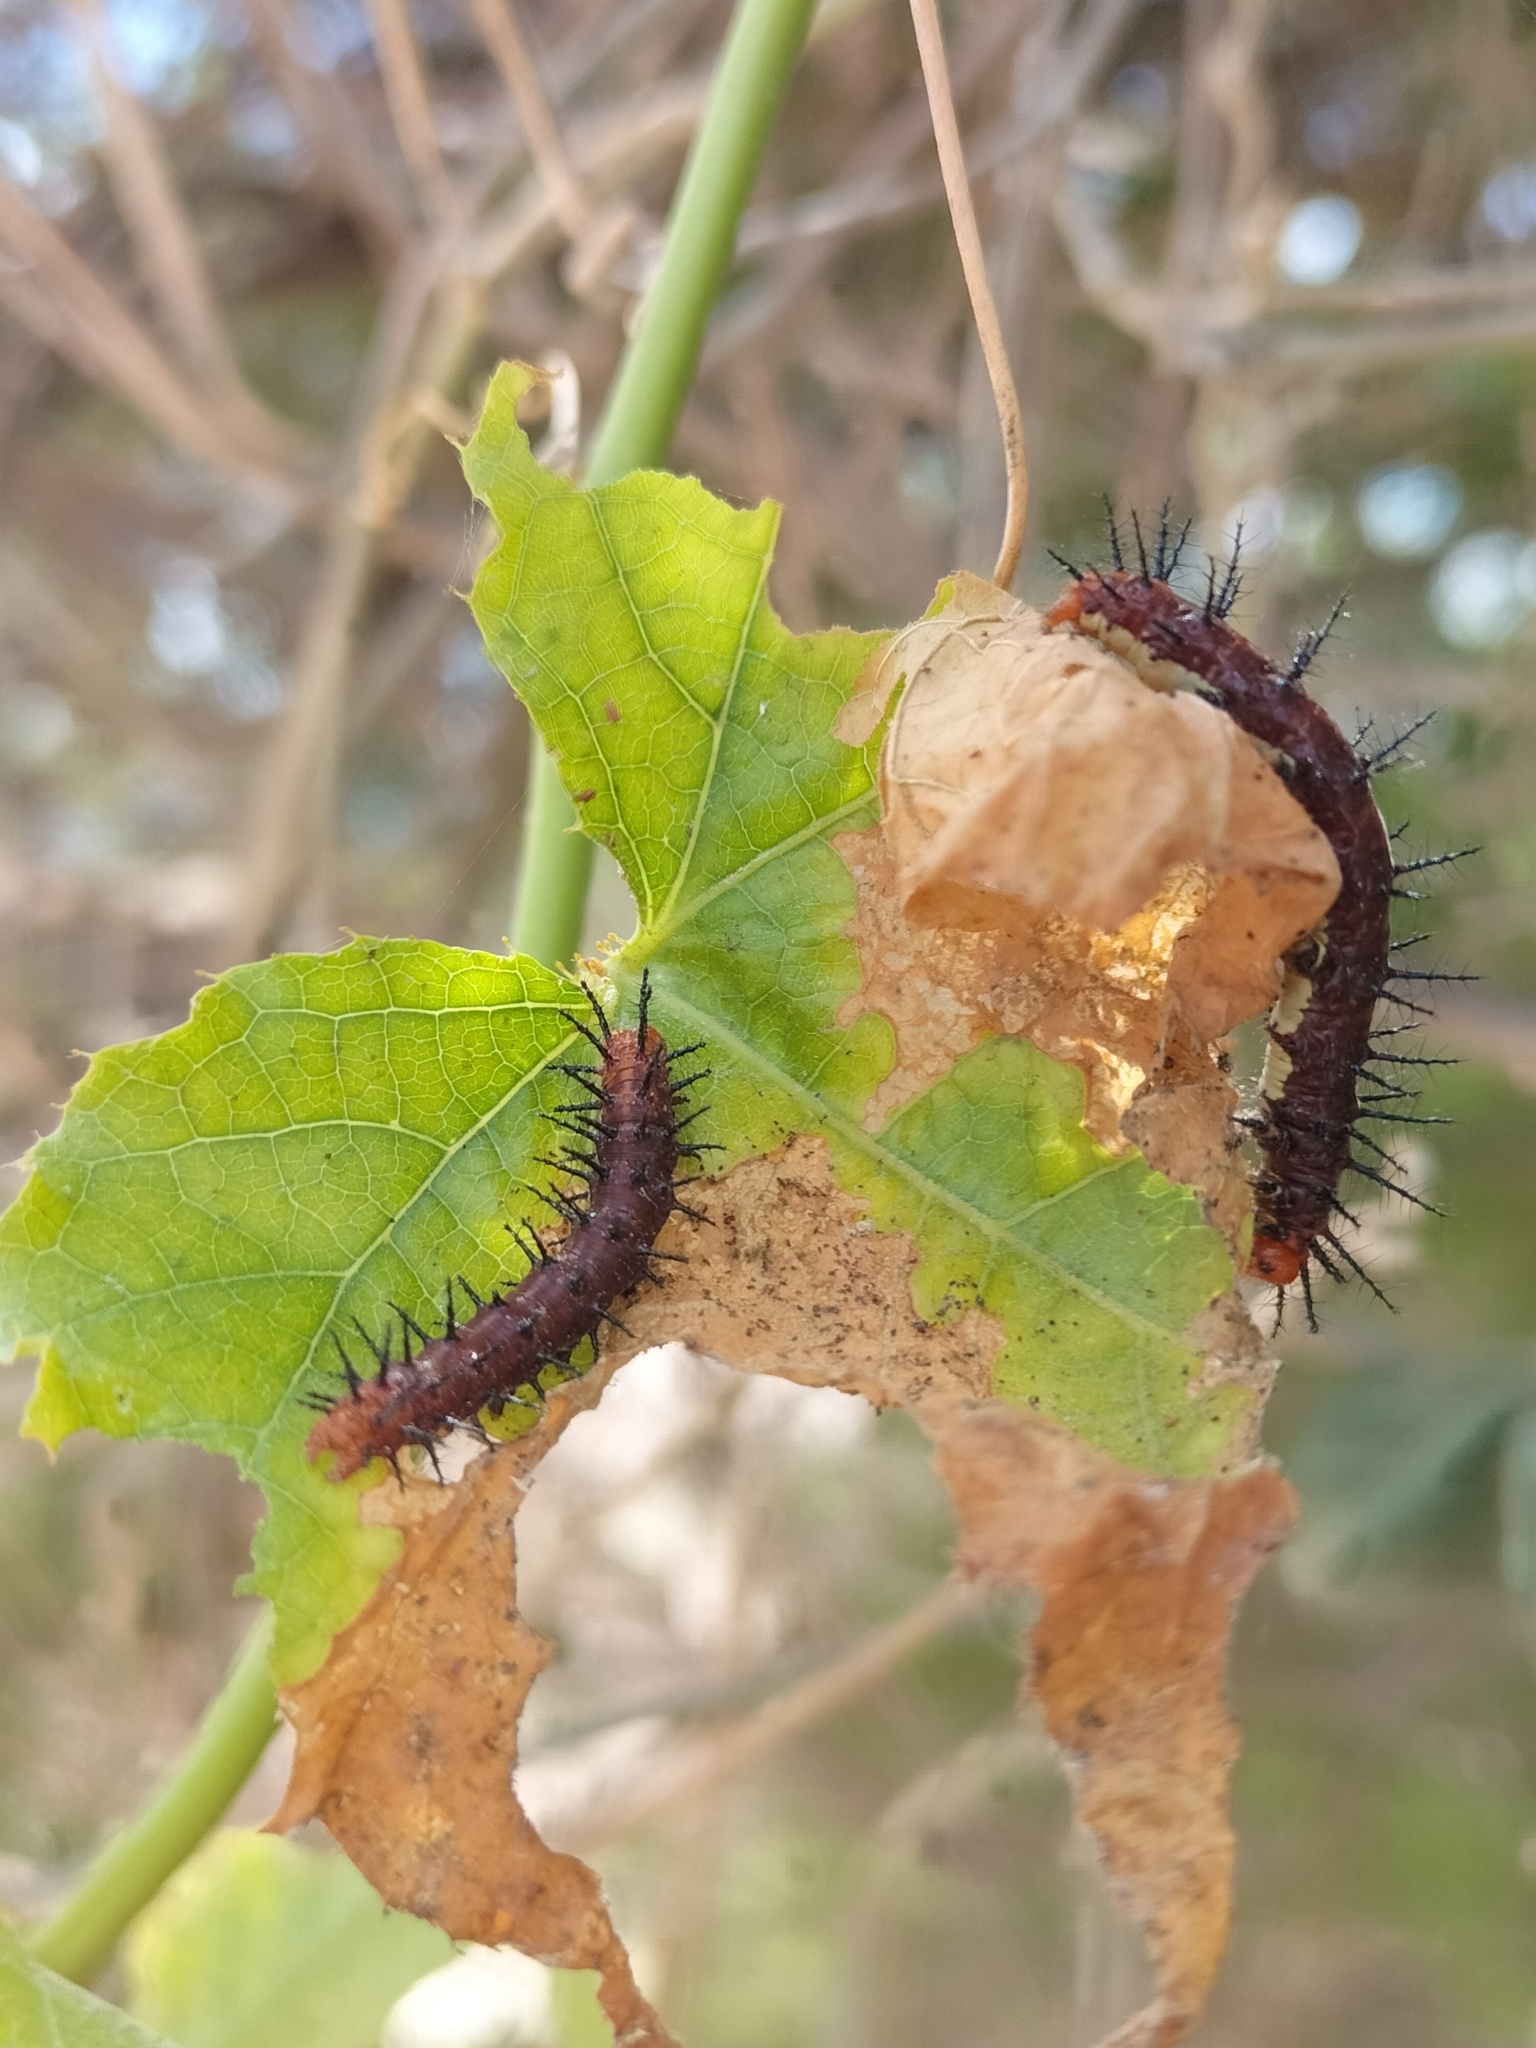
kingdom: Animalia
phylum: Arthropoda
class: Insecta
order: Lepidoptera
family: Nymphalidae
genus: Acraea
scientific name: Acraea terpsicore
